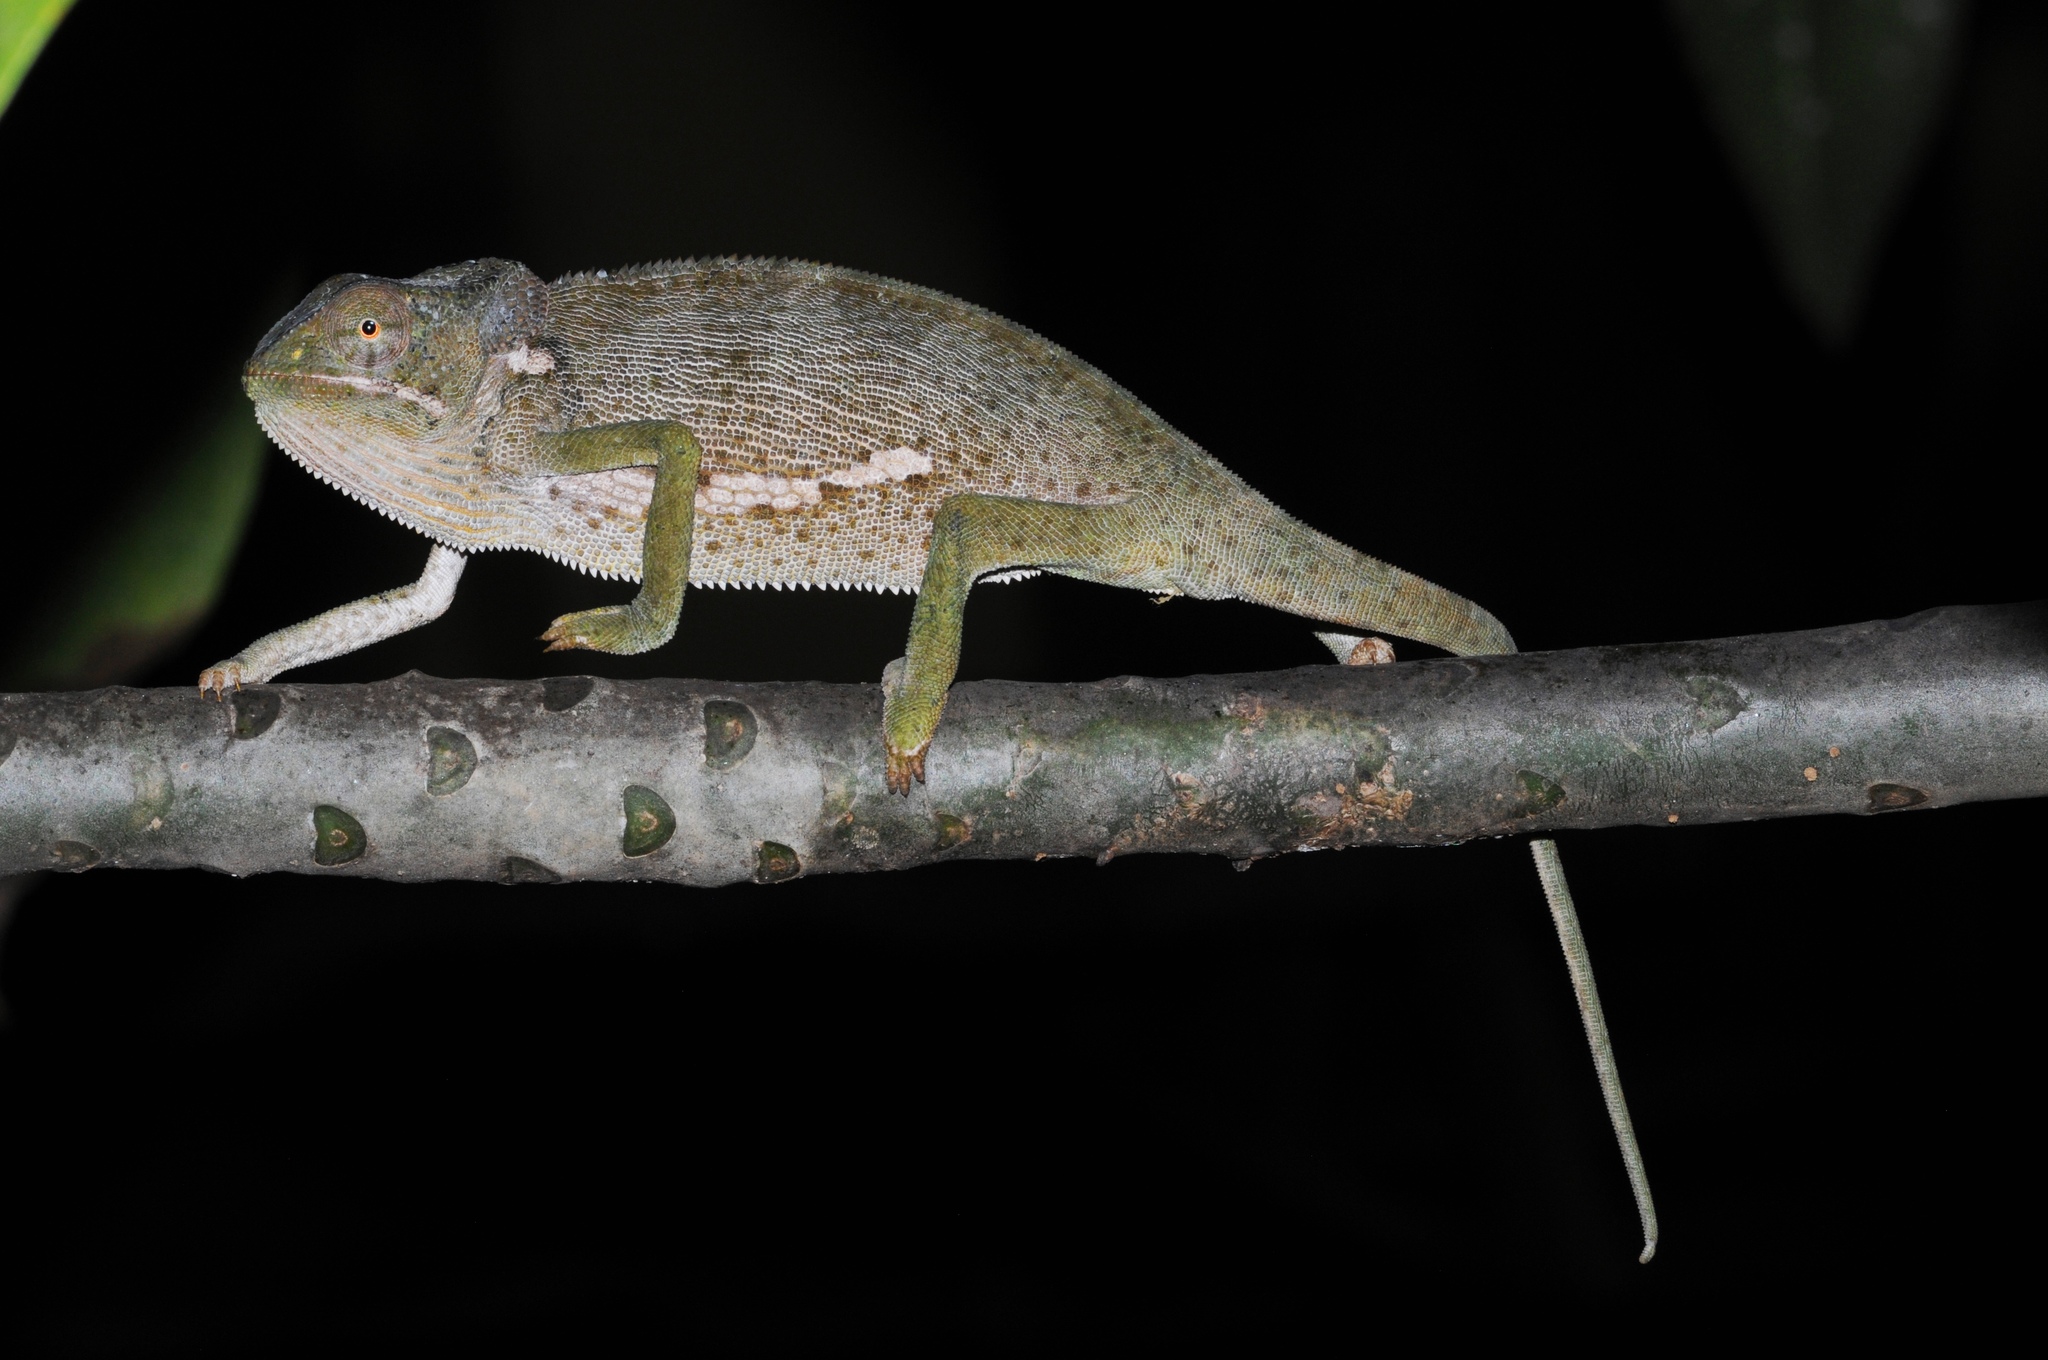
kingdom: Animalia
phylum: Chordata
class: Squamata
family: Chamaeleonidae
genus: Chamaeleo
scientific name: Chamaeleo dilepis
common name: Flapneck chameleon
